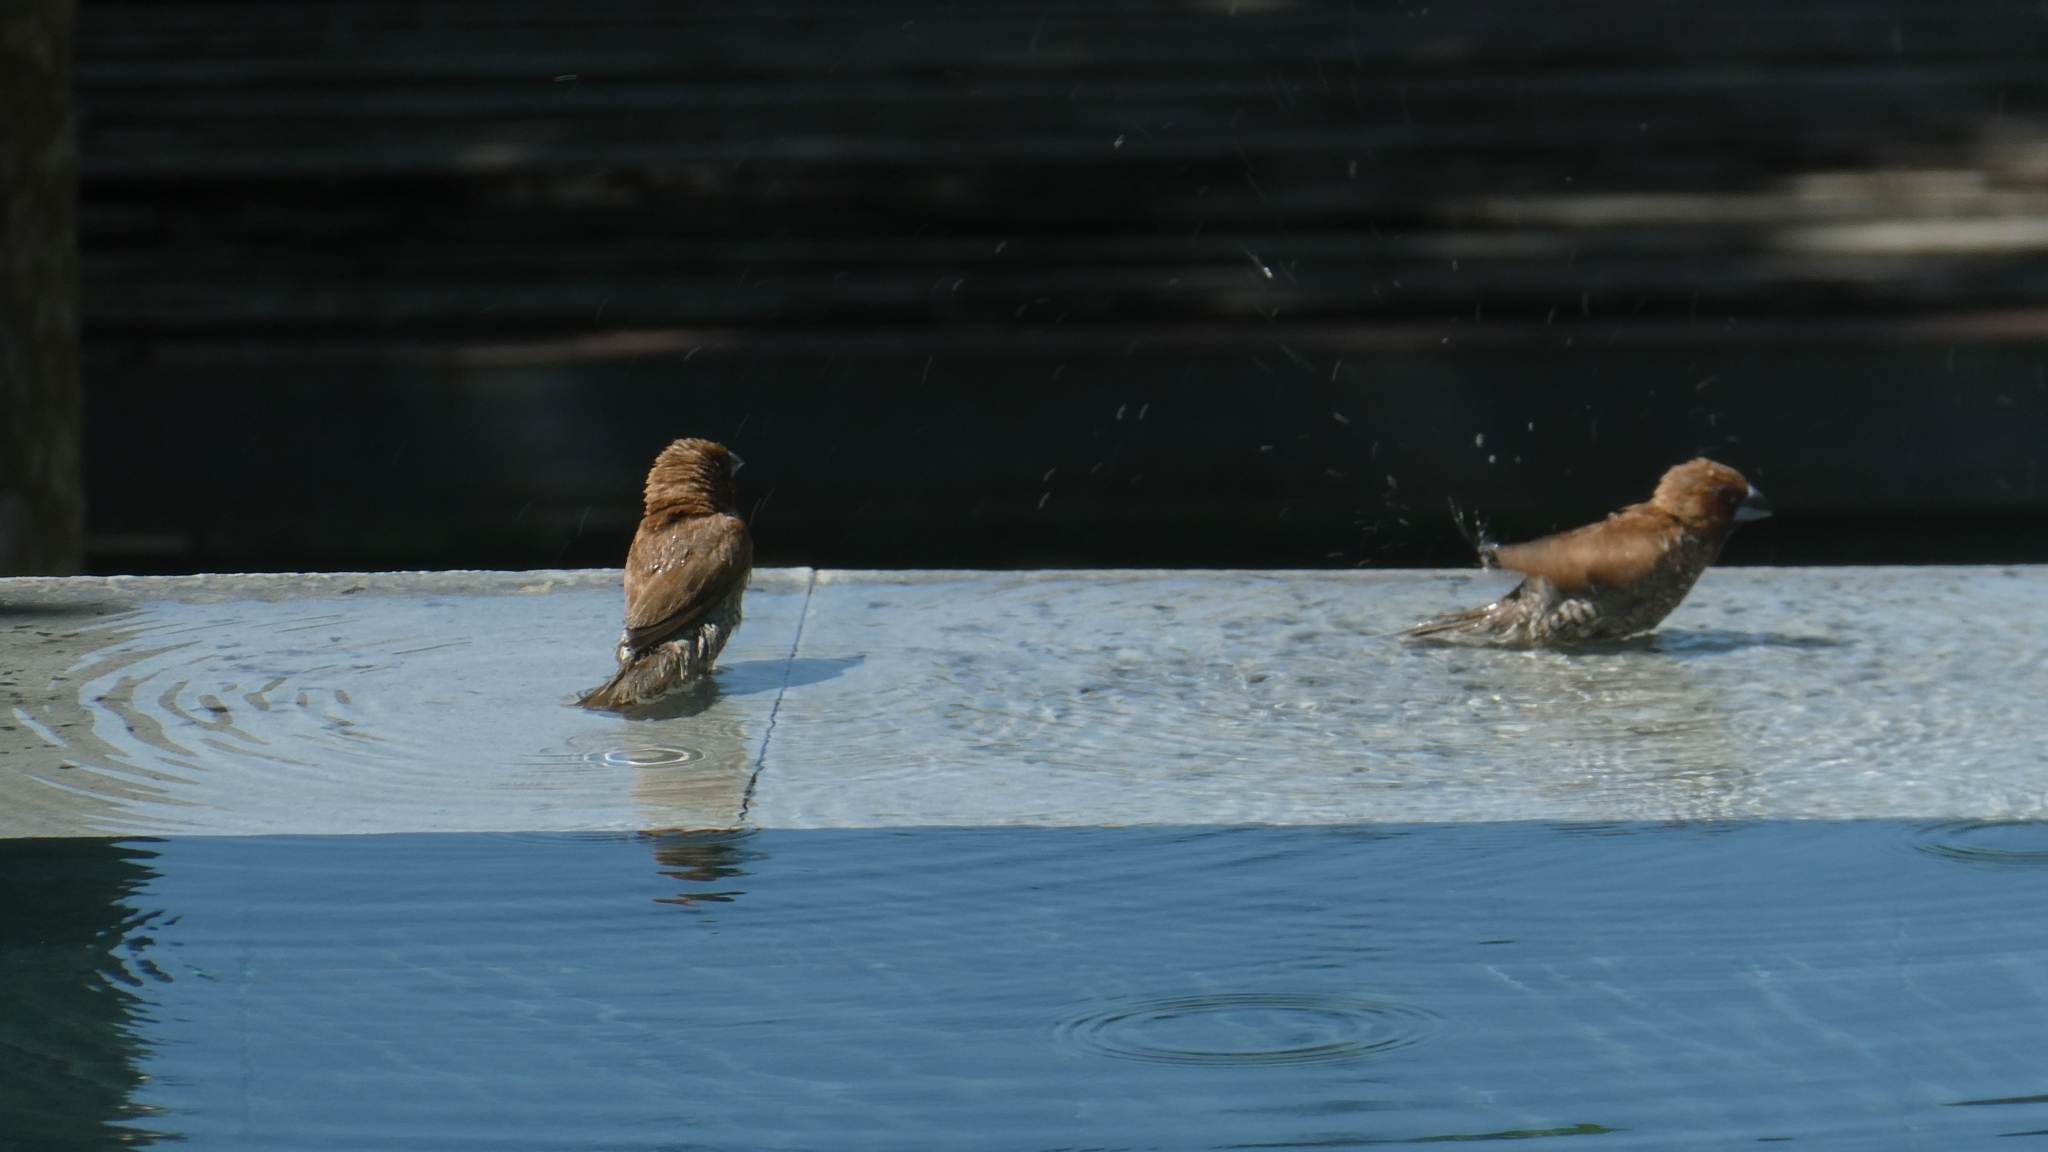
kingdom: Animalia
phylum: Chordata
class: Aves
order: Passeriformes
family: Estrildidae
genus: Lonchura
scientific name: Lonchura punctulata
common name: Scaly-breasted munia
